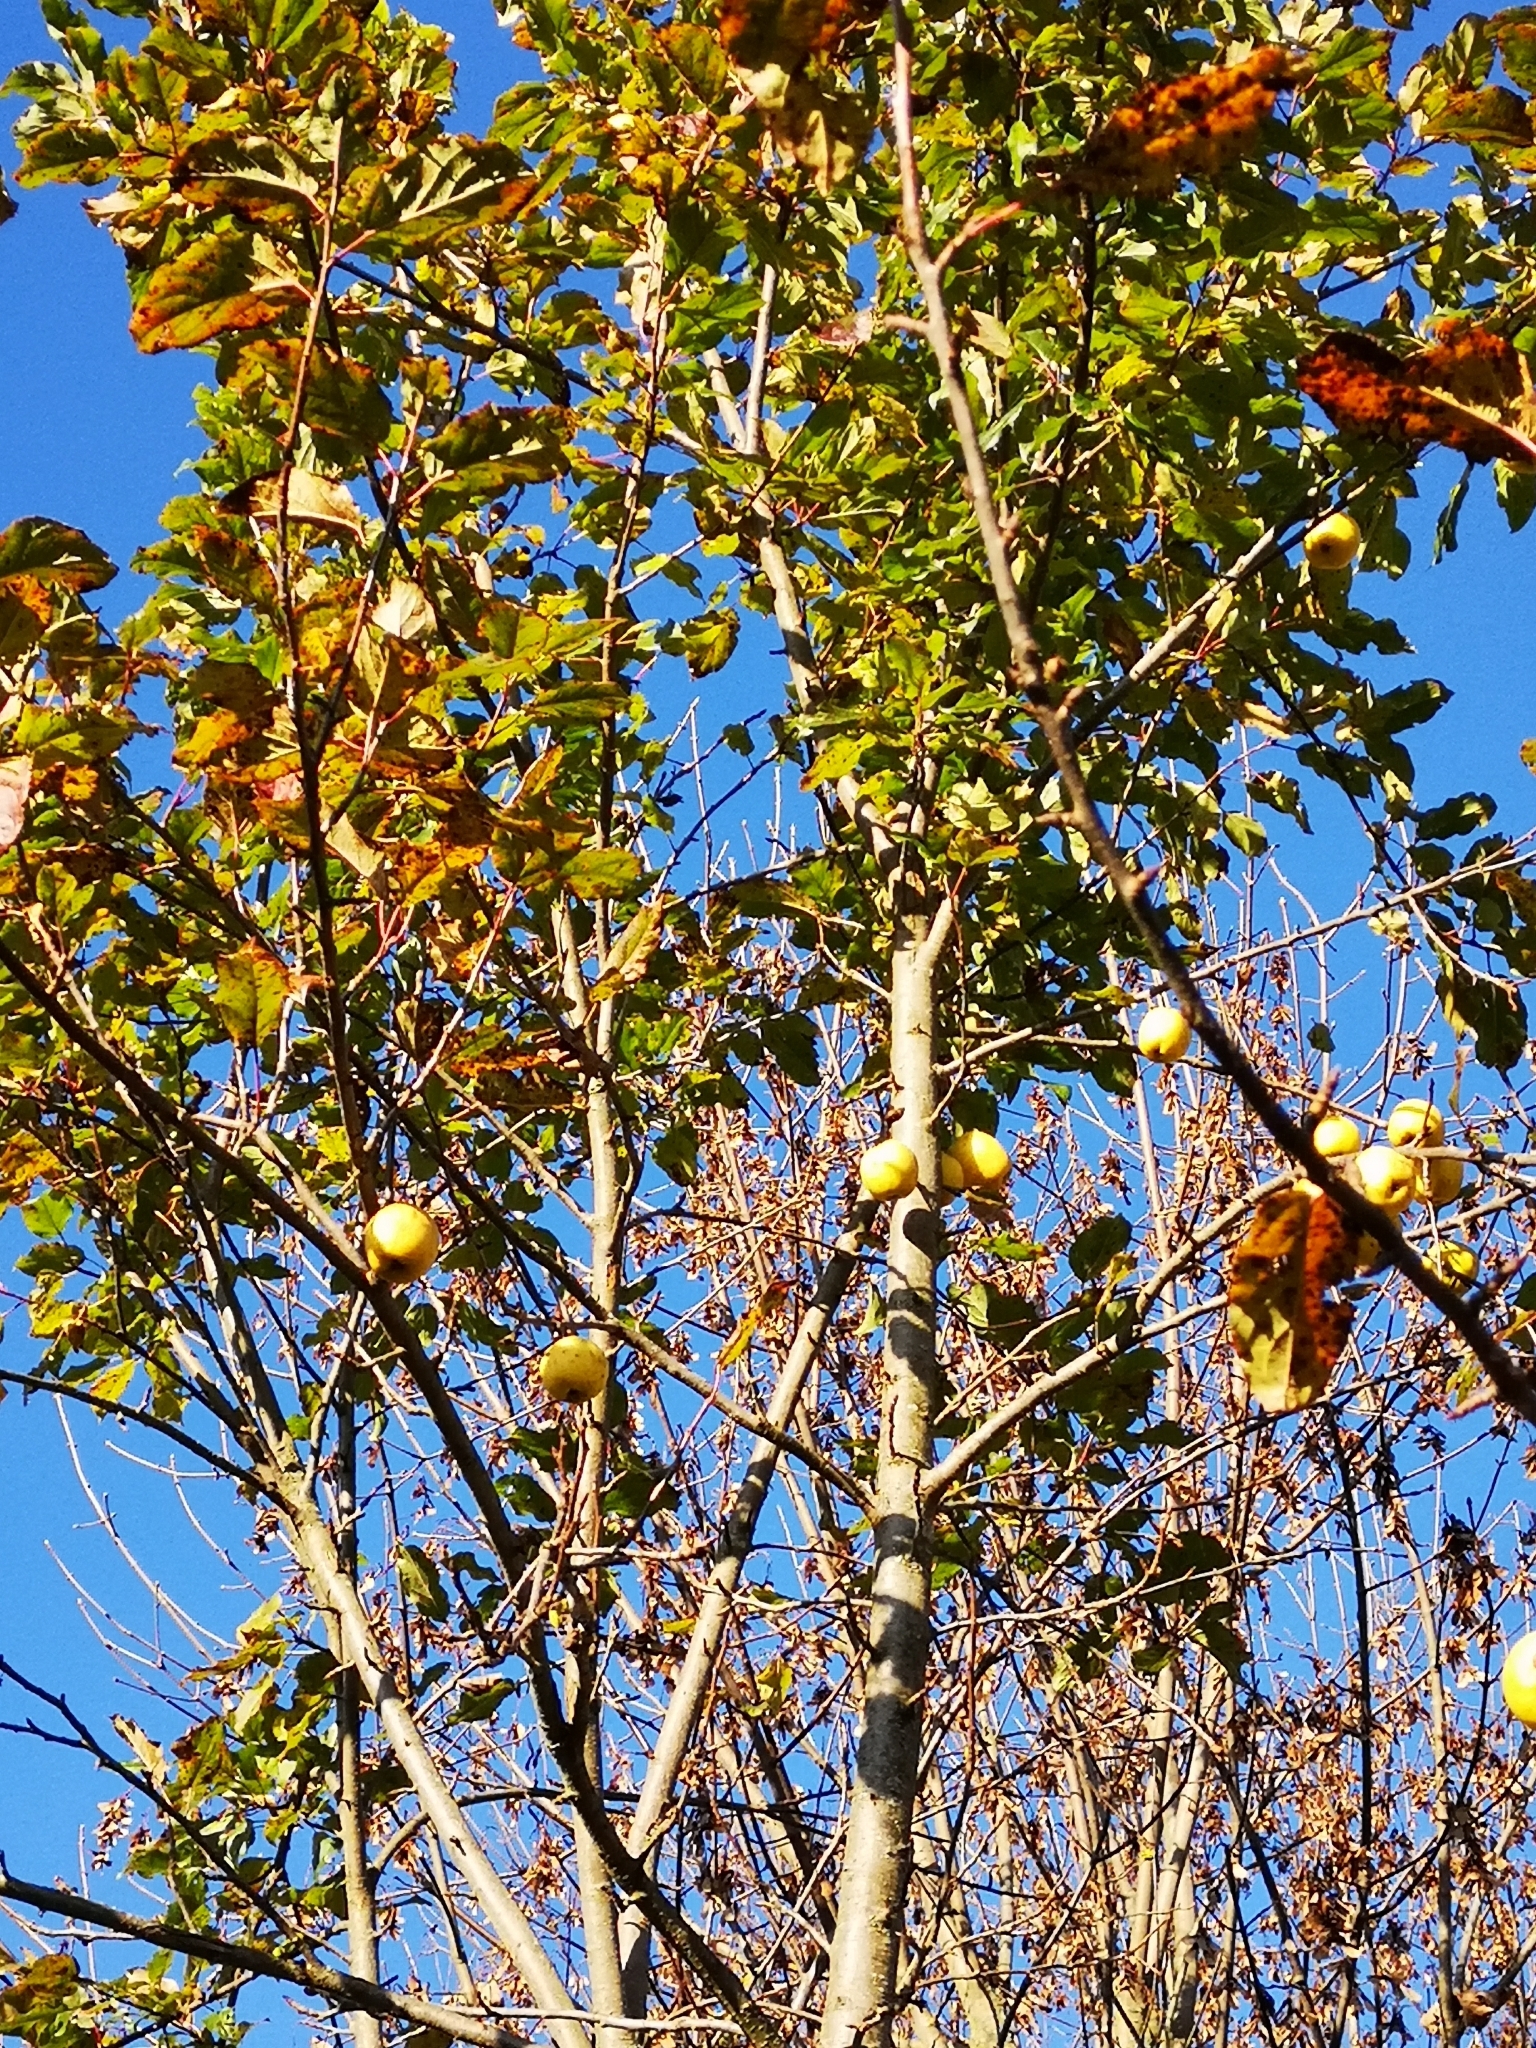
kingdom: Plantae
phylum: Tracheophyta
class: Magnoliopsida
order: Rosales
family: Rosaceae
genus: Malus
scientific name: Malus domestica
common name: Apple
